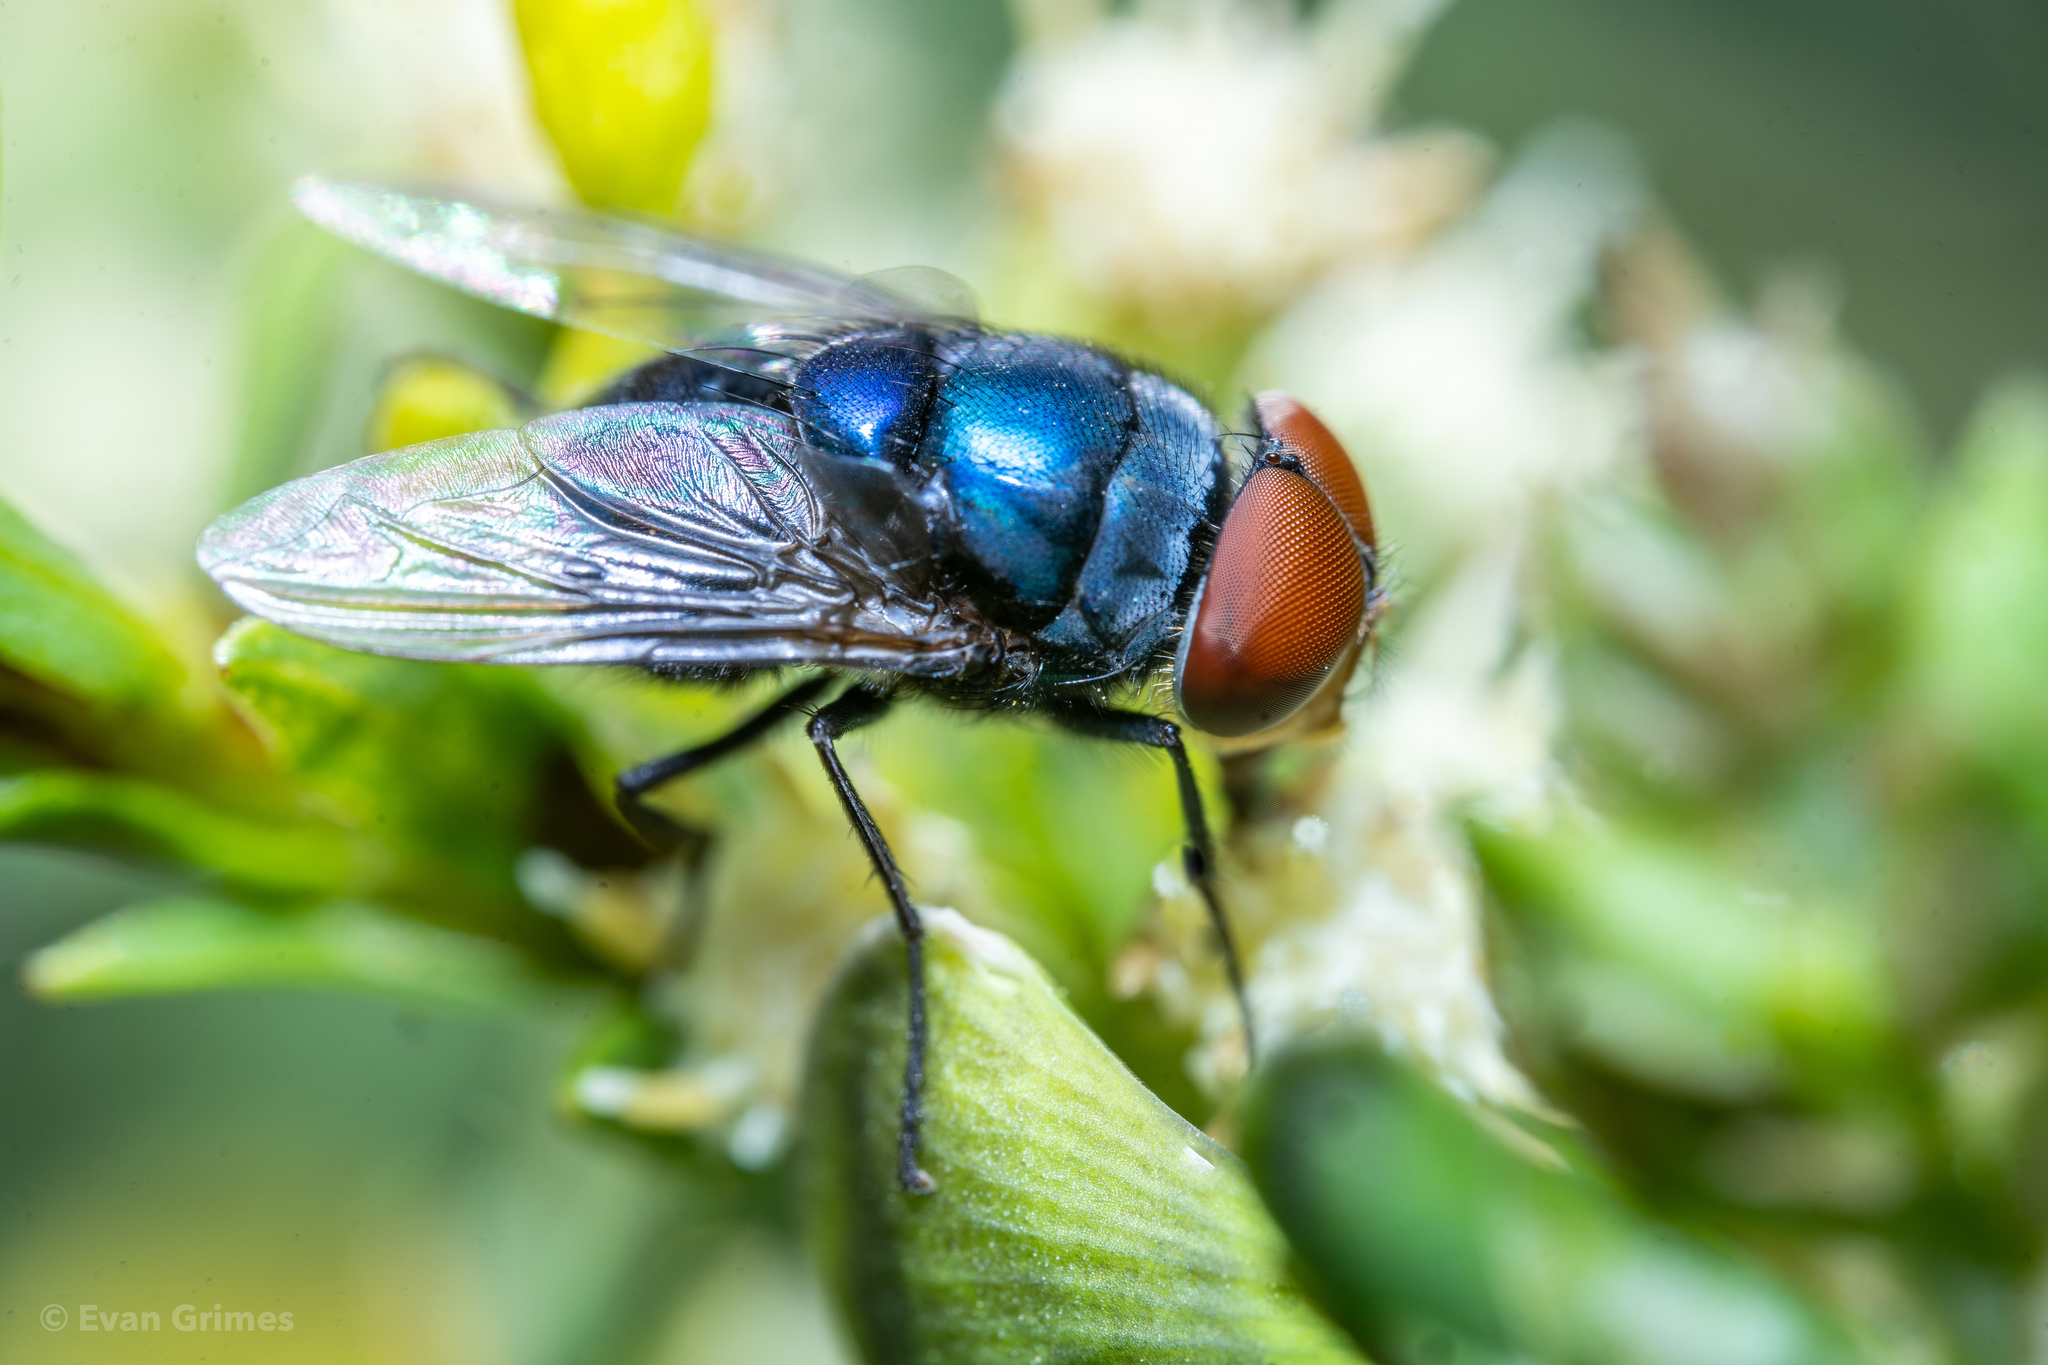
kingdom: Animalia
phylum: Arthropoda
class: Insecta
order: Diptera
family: Calliphoridae
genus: Chrysomya
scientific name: Chrysomya megacephala
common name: Blow fly
